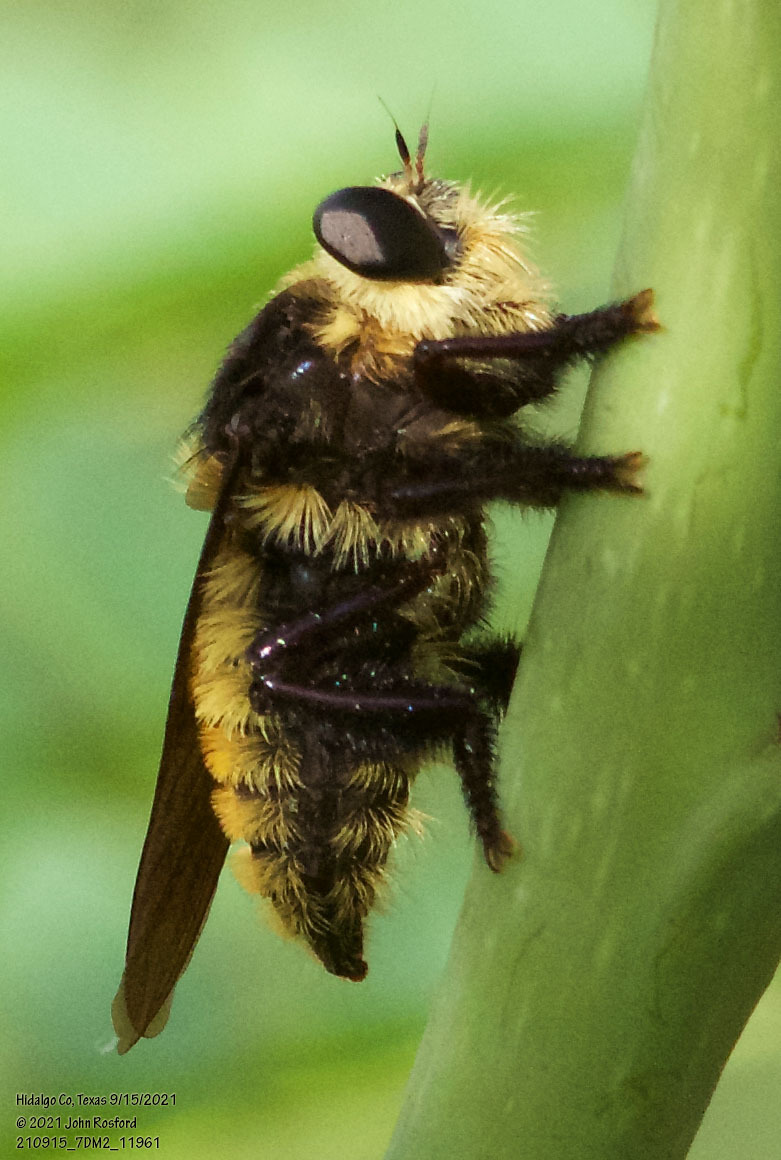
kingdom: Animalia
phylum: Arthropoda
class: Insecta
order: Diptera
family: Asilidae
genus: Mallophora
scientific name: Mallophora fautrix
